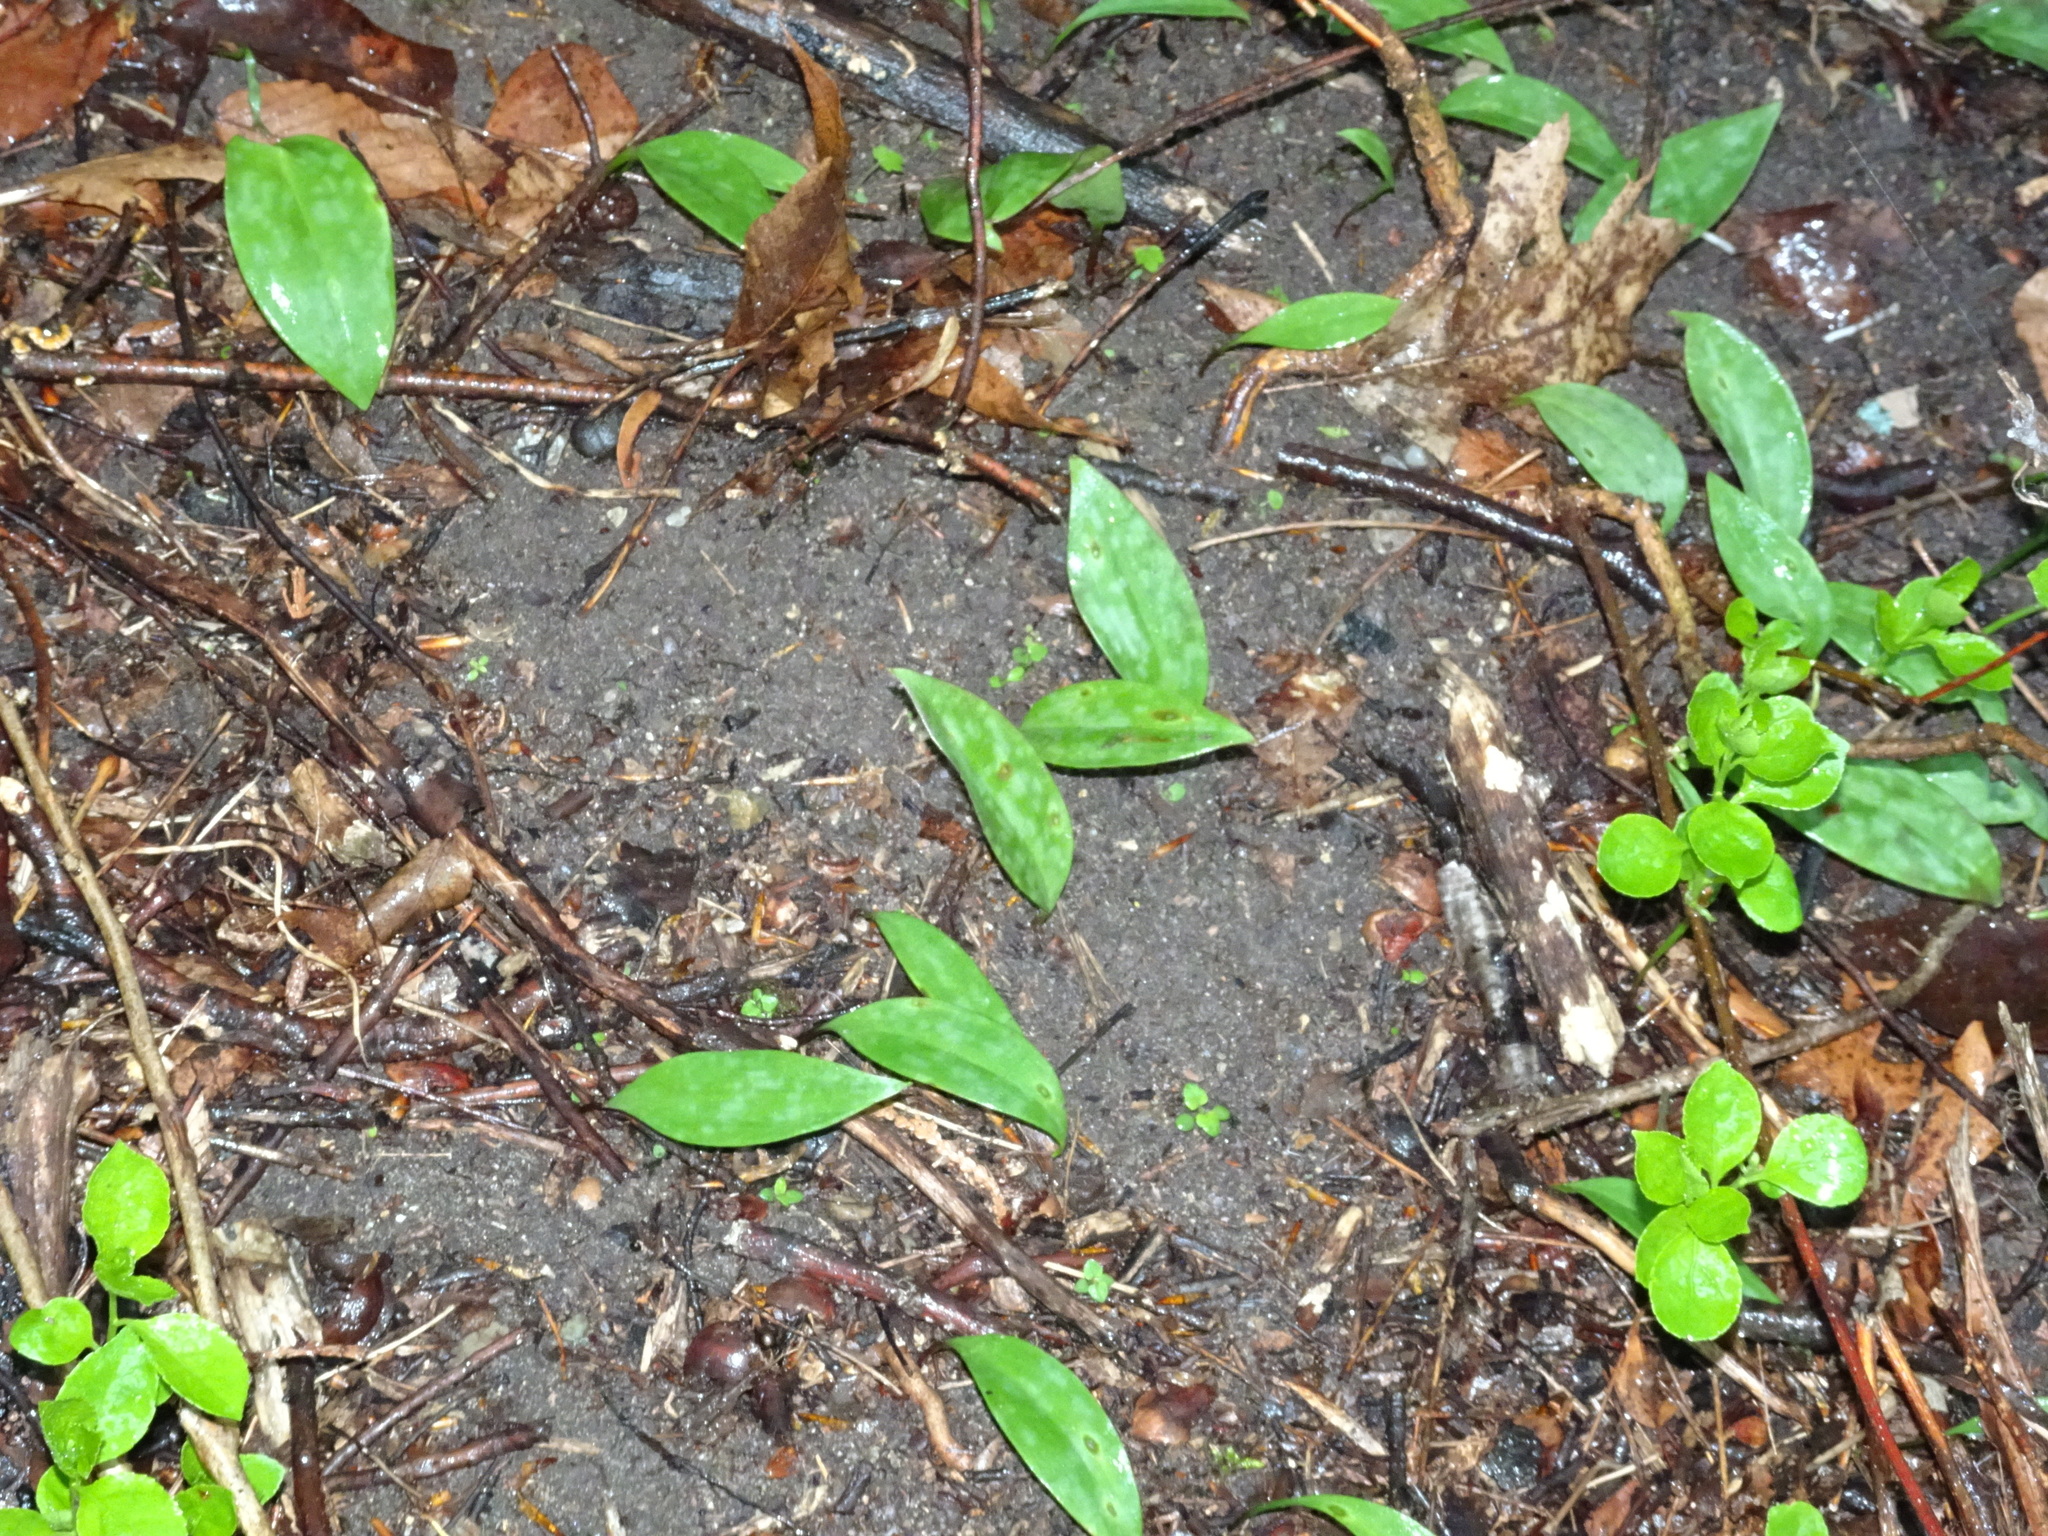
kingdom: Plantae
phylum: Tracheophyta
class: Liliopsida
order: Liliales
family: Liliaceae
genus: Erythronium
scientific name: Erythronium americanum
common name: Yellow adder's-tongue
